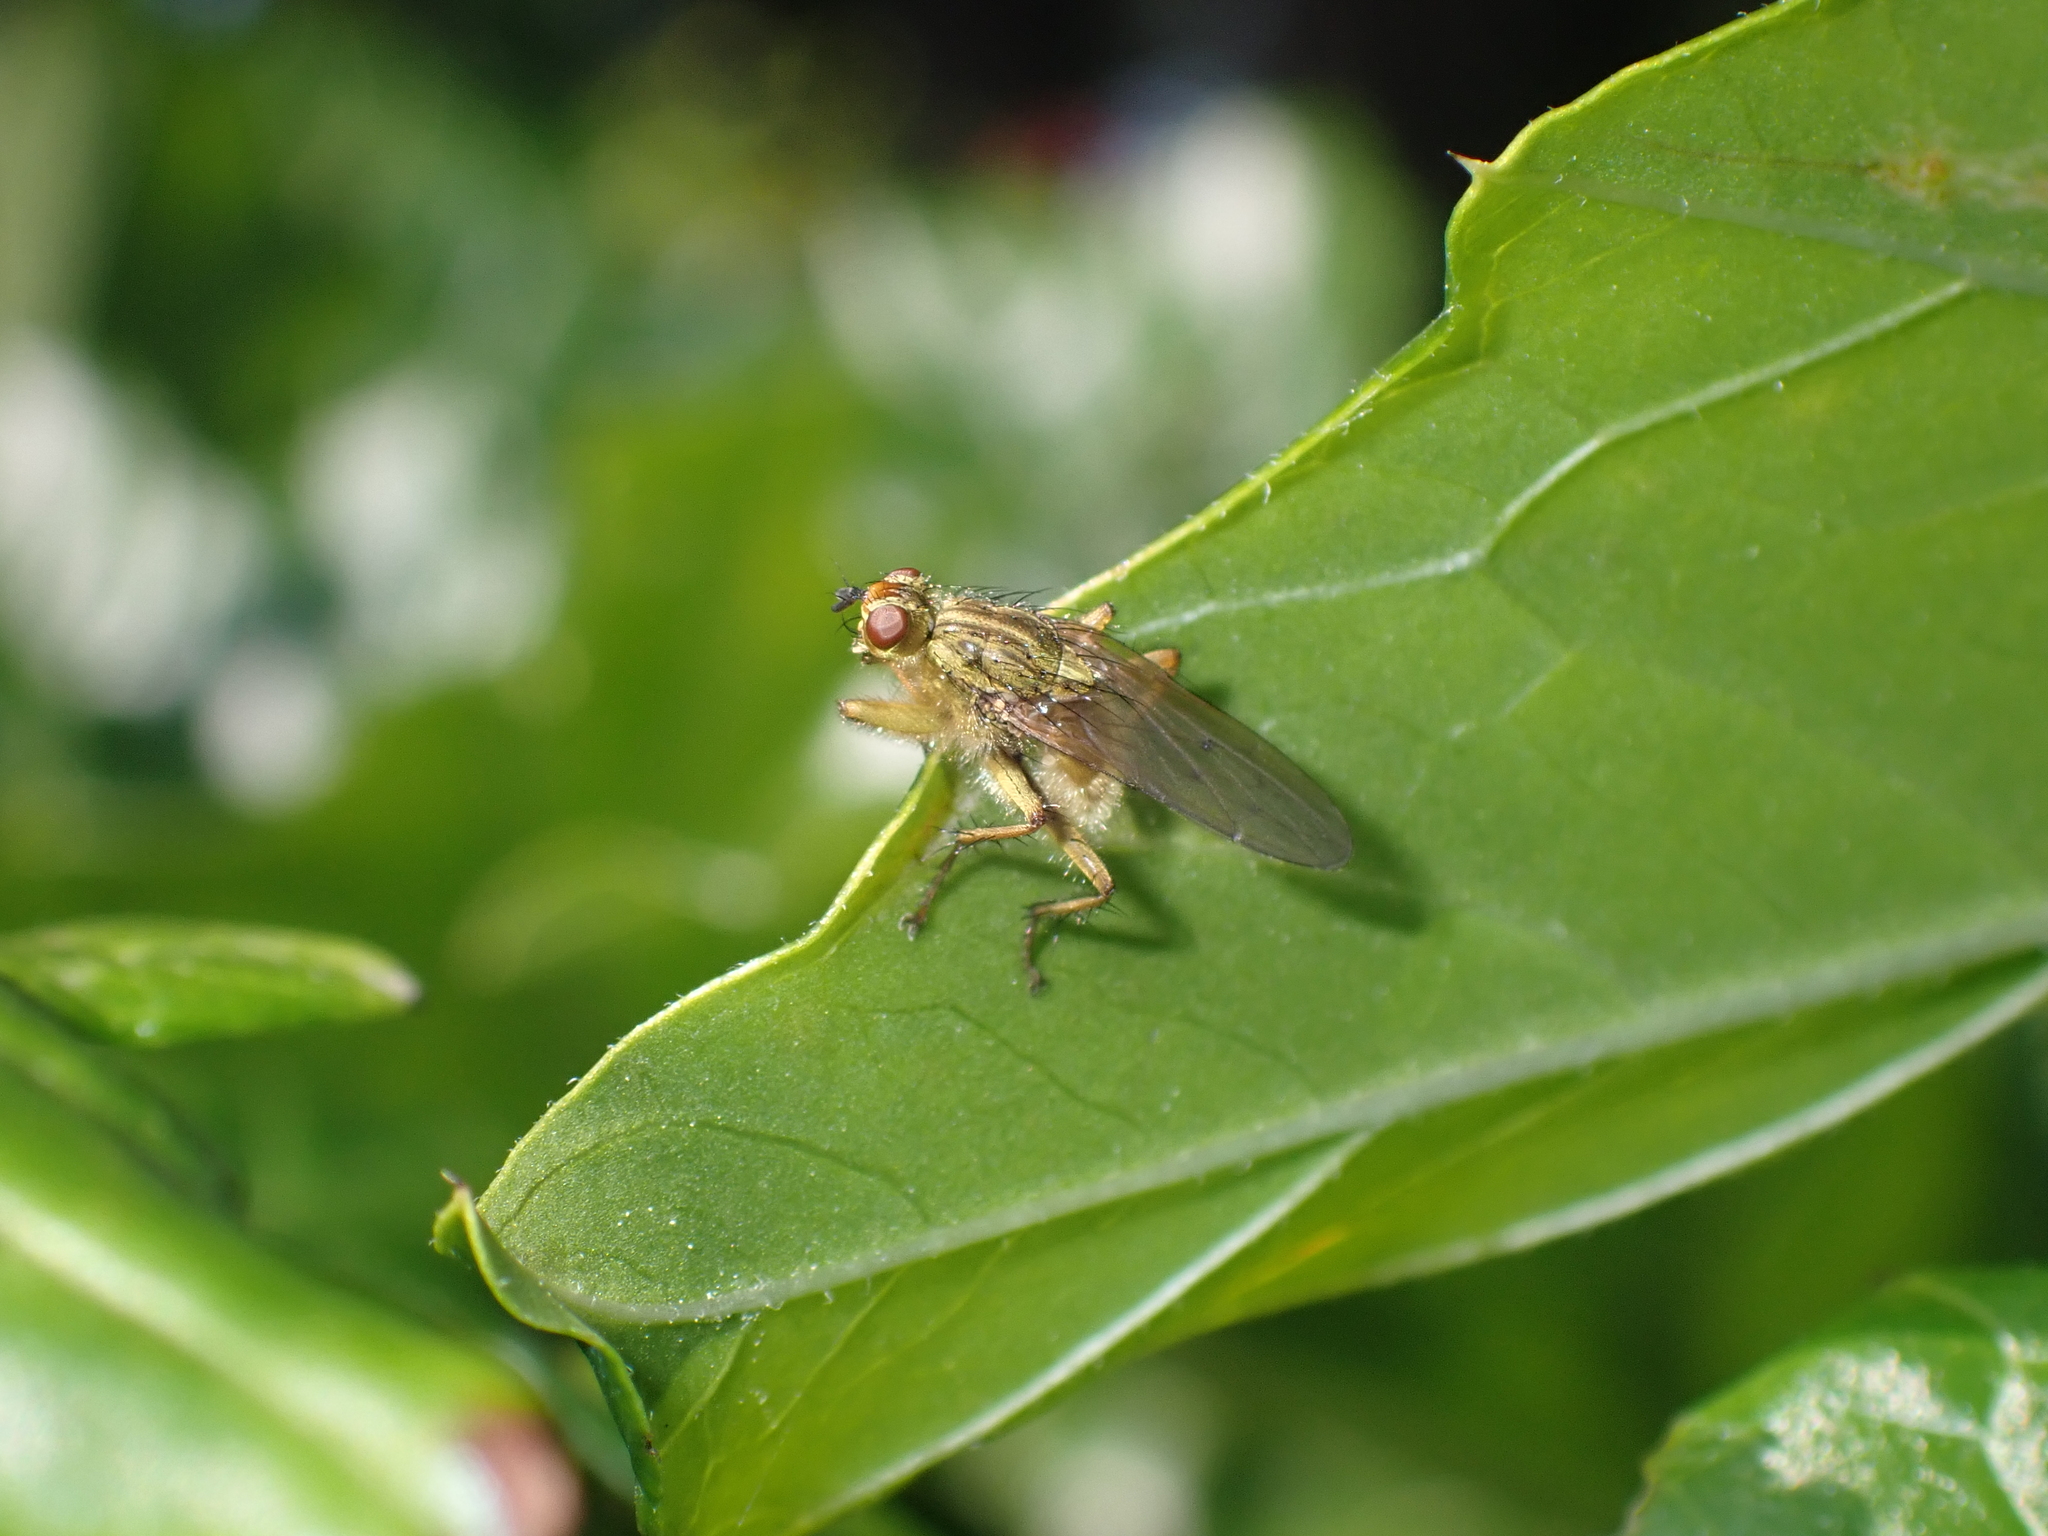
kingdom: Animalia
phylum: Arthropoda
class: Insecta
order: Diptera
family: Scathophagidae
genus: Scathophaga
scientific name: Scathophaga stercoraria
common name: Yellow dung fly
